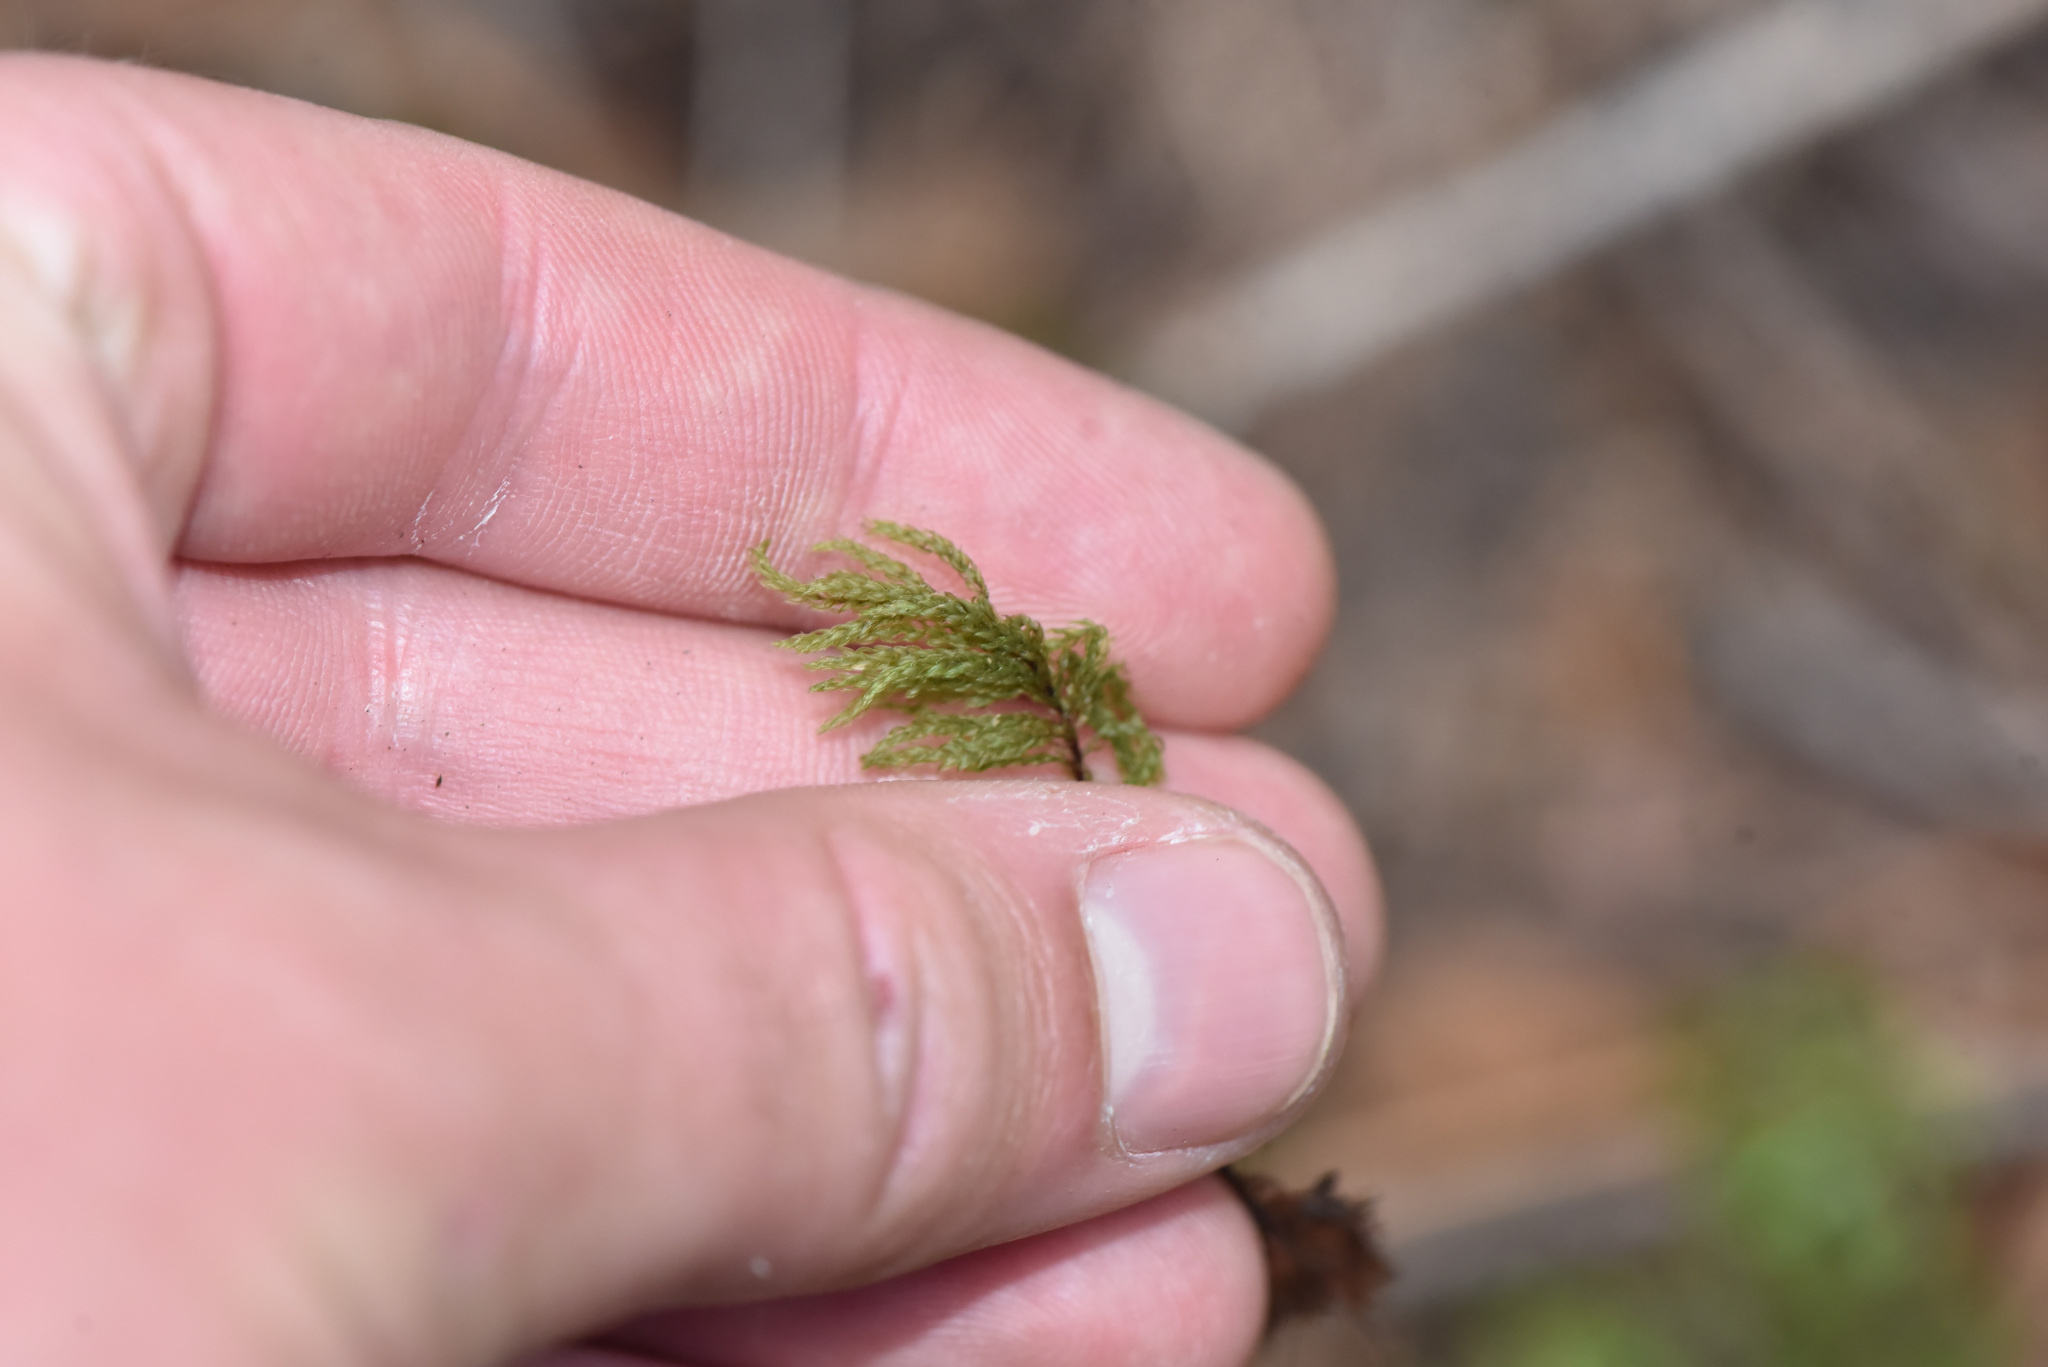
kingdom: Plantae
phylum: Bryophyta
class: Bryopsida
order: Bryales
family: Mniaceae
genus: Leucolepis
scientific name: Leucolepis acanthoneura
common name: Leucolepis umbrella moss
